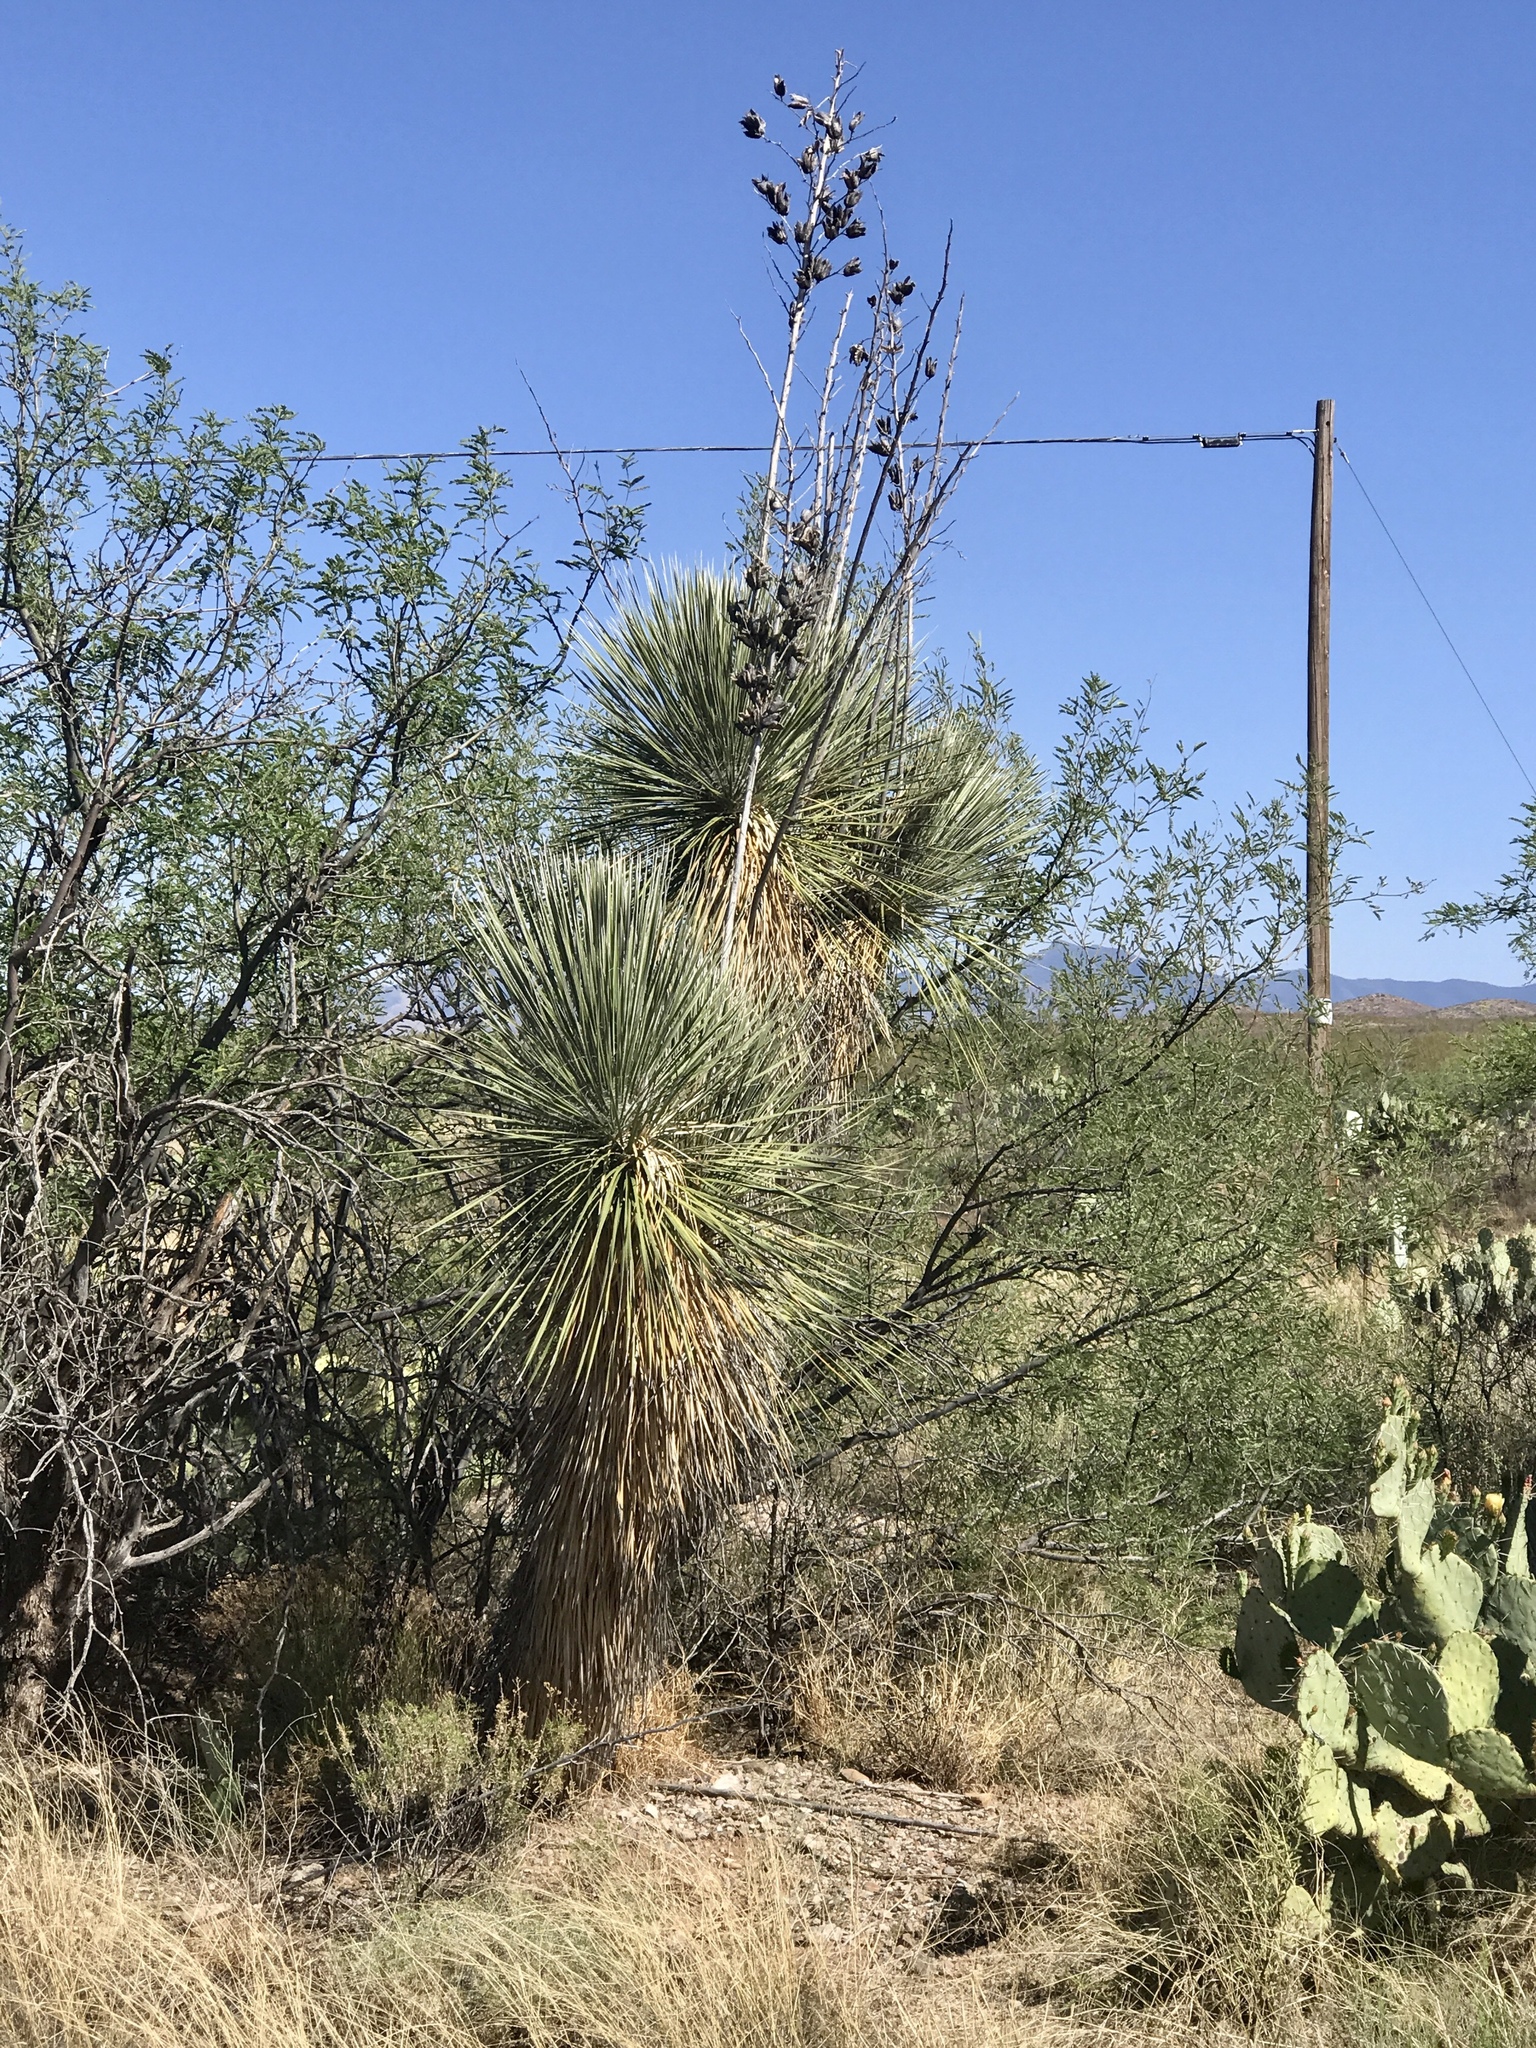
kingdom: Plantae
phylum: Tracheophyta
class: Liliopsida
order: Asparagales
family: Asparagaceae
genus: Yucca
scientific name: Yucca elata
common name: Palmella
